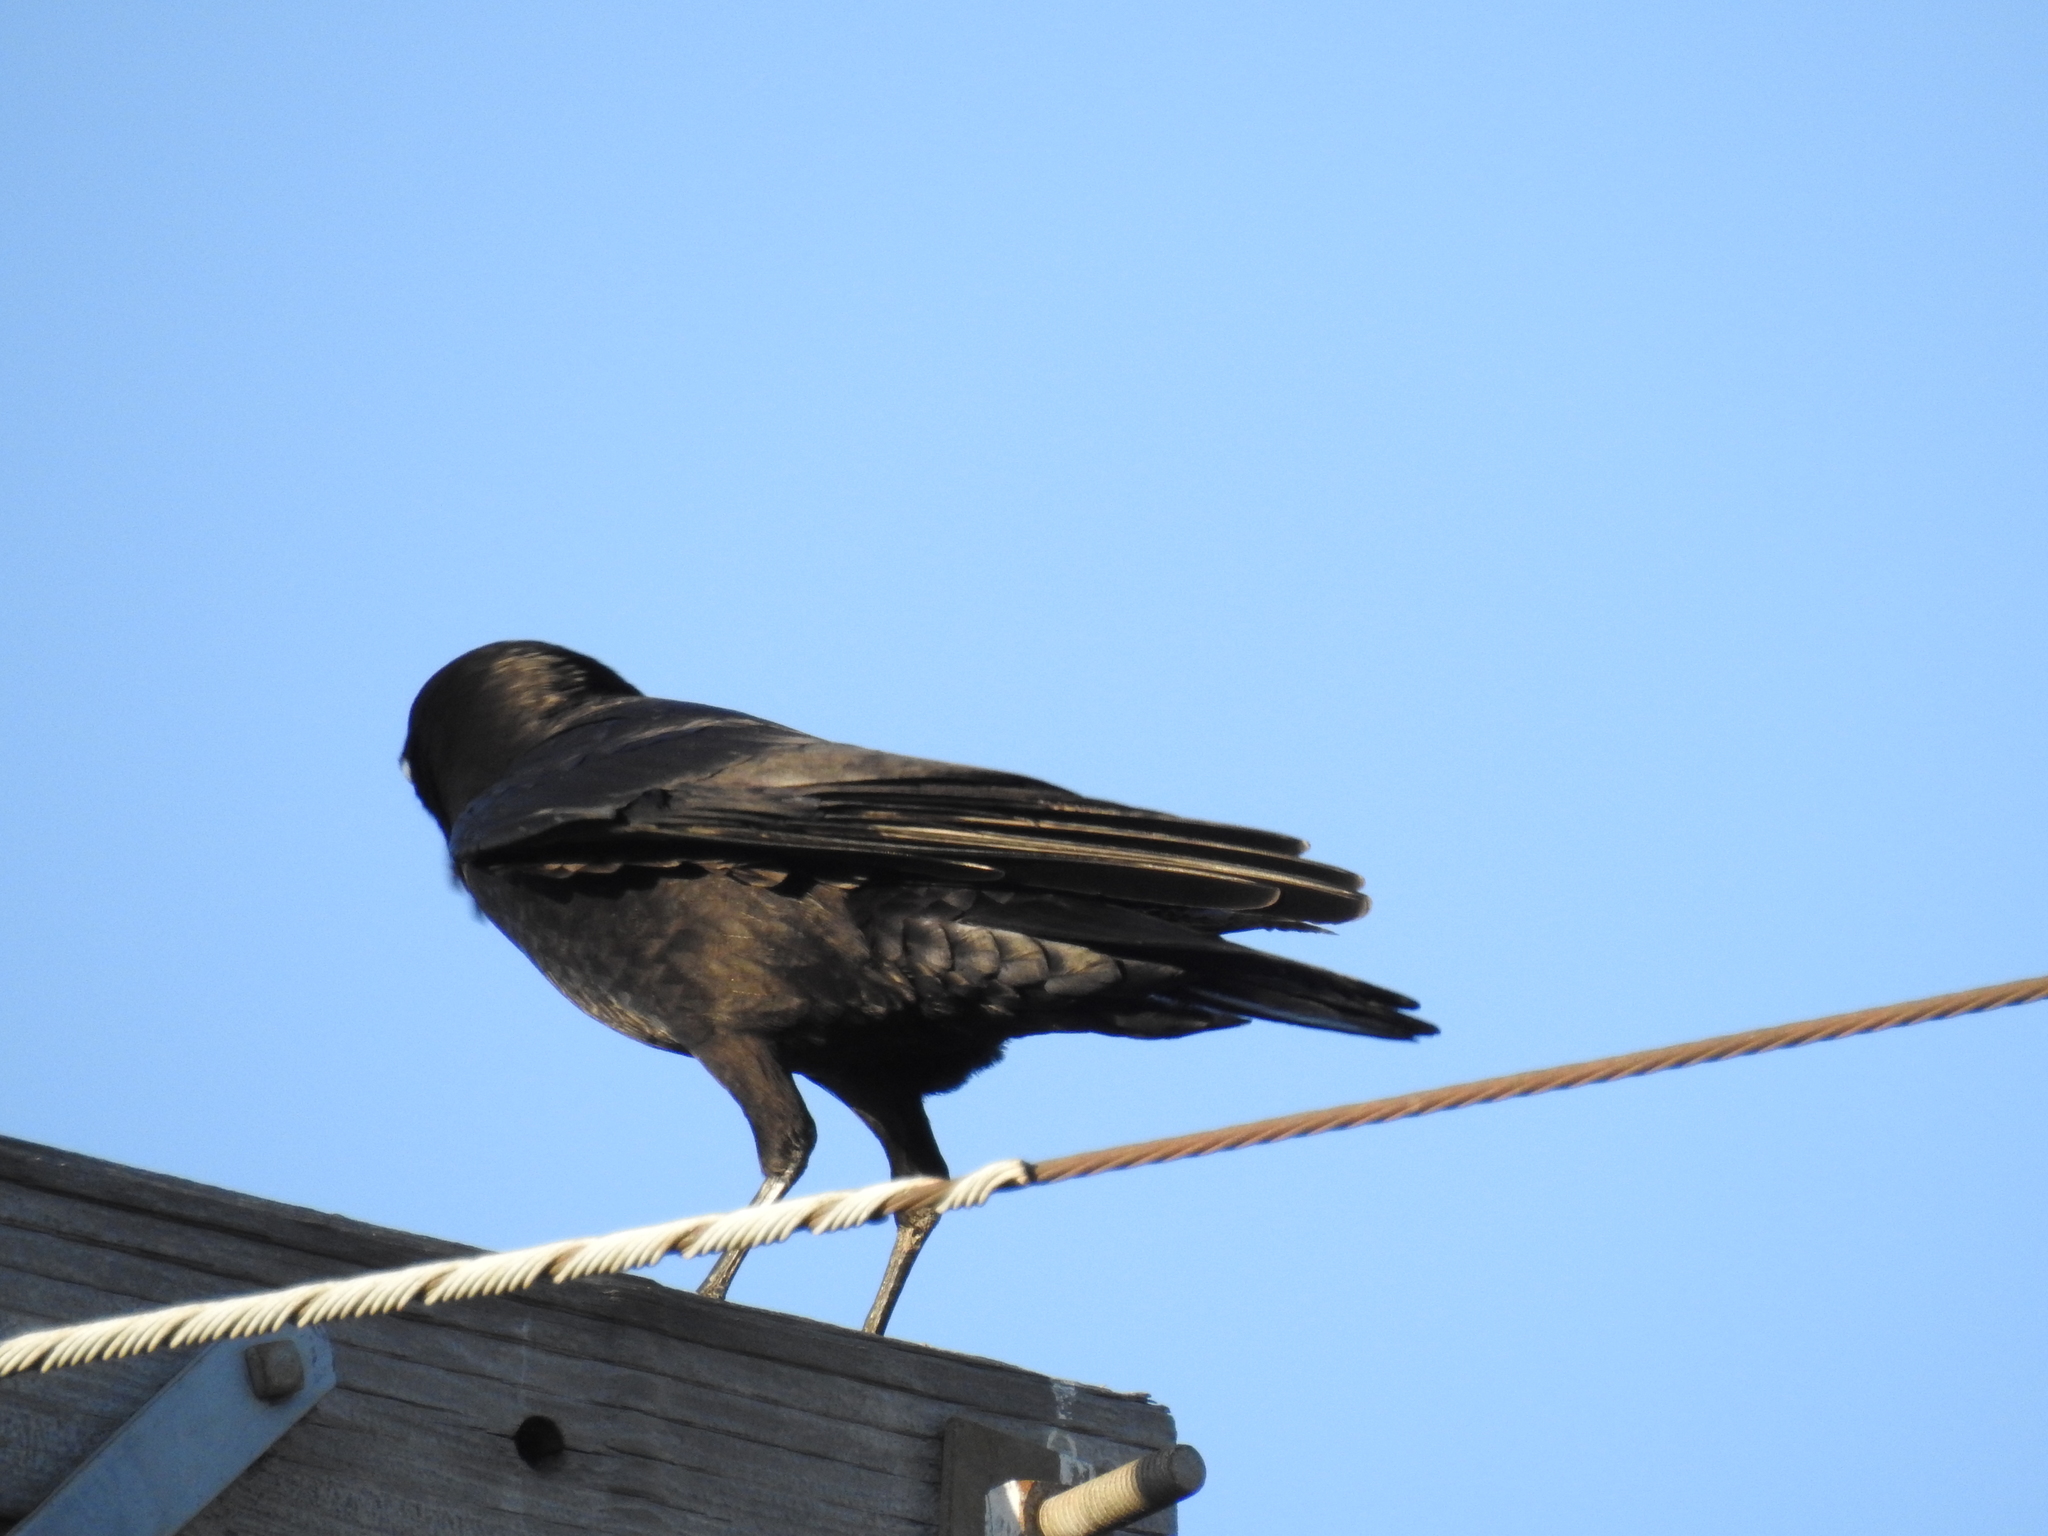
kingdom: Animalia
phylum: Chordata
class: Aves
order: Passeriformes
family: Corvidae
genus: Corvus
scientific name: Corvus brachyrhynchos
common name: American crow
